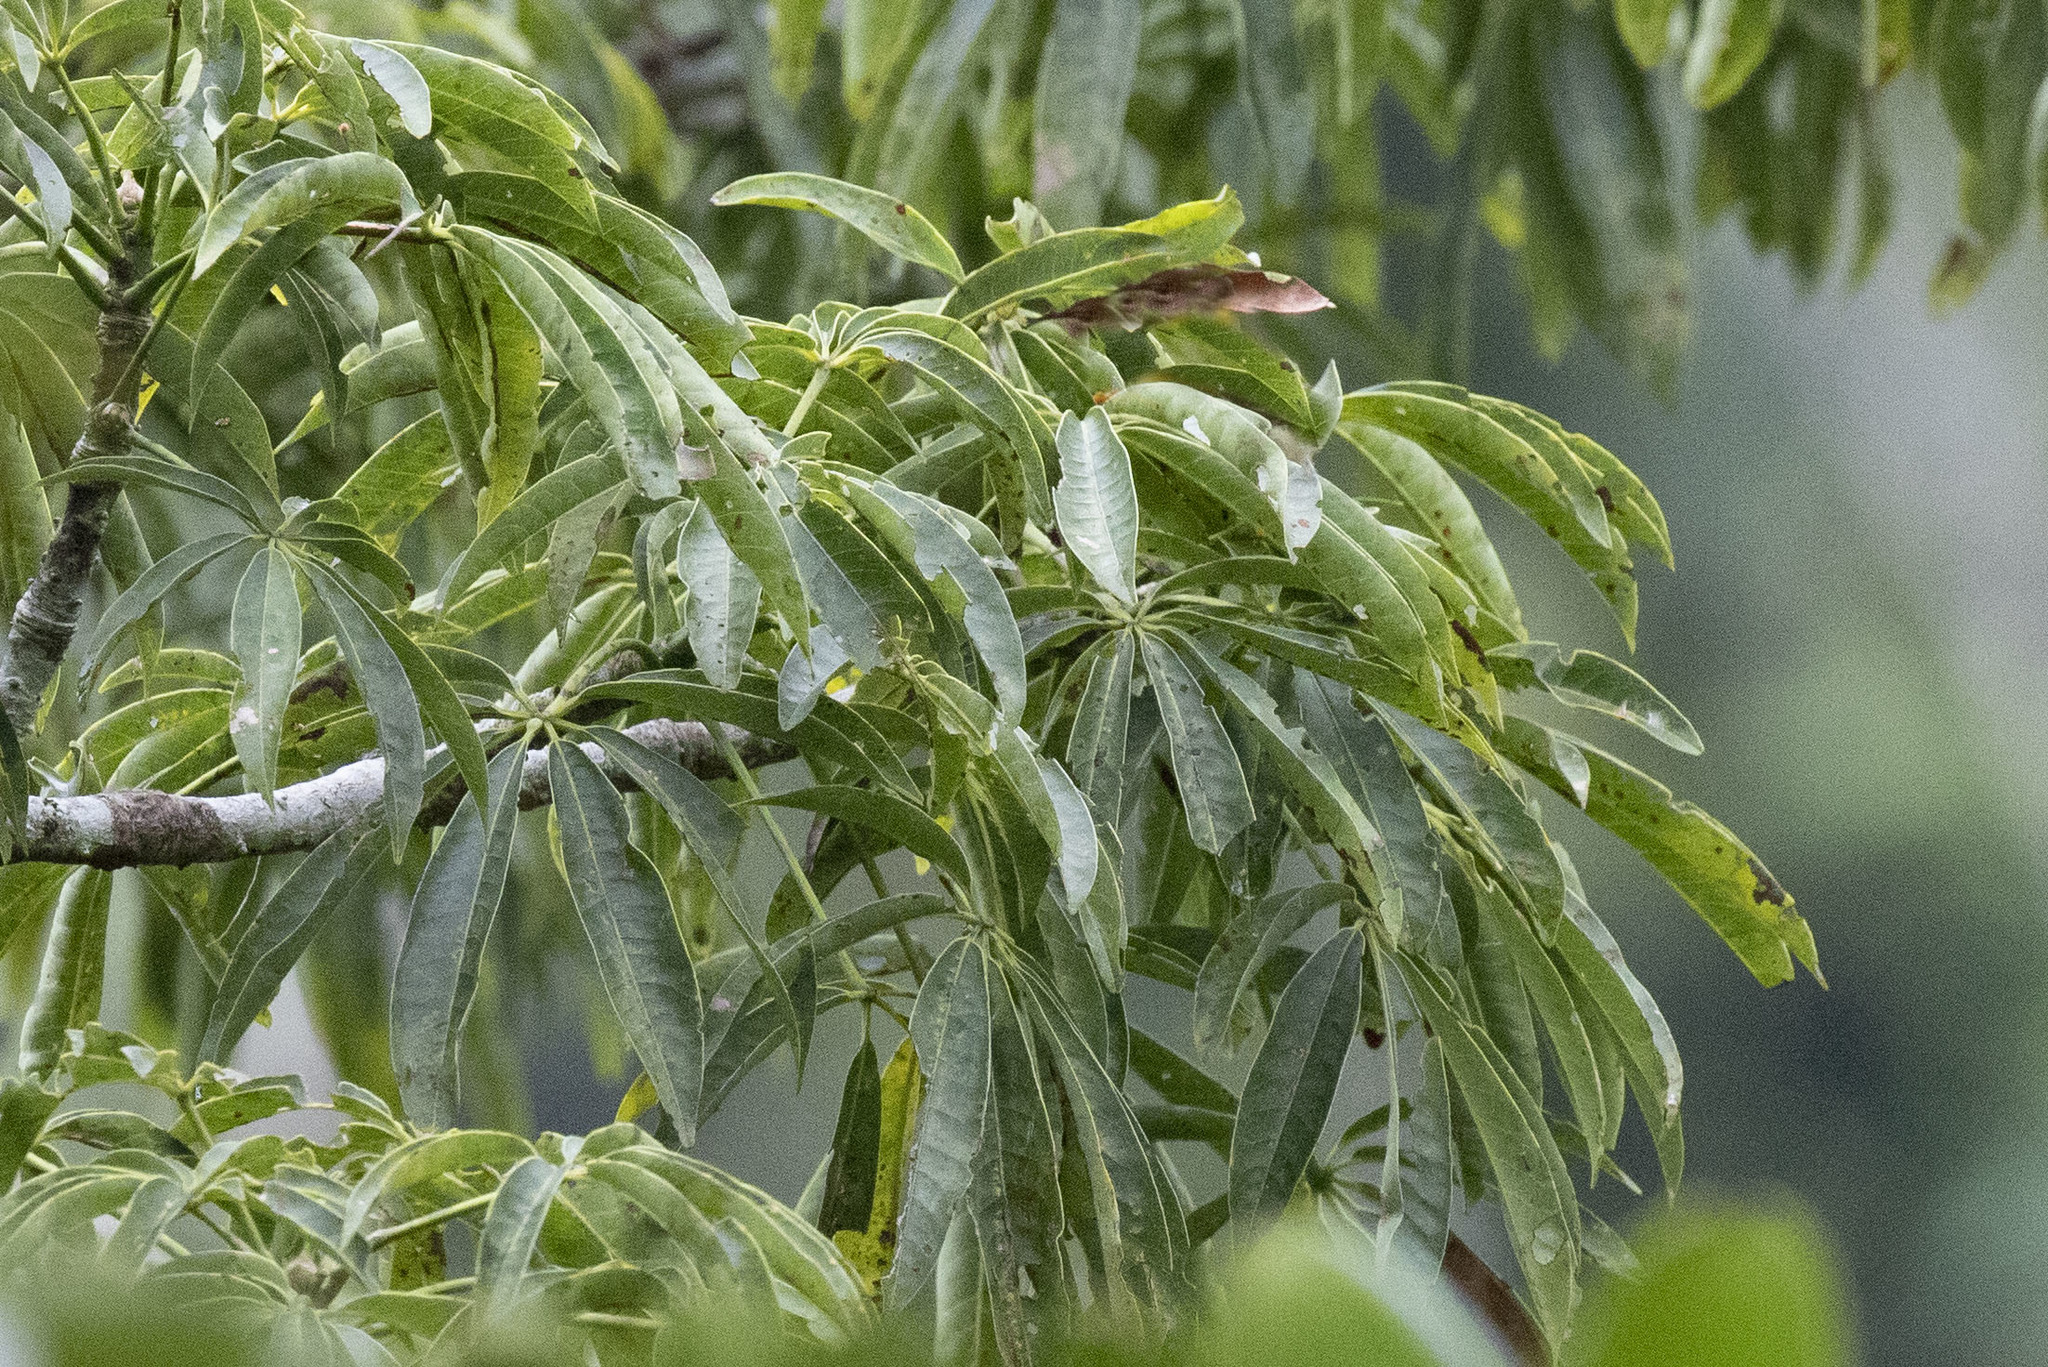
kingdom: Plantae
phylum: Tracheophyta
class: Magnoliopsida
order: Malvales
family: Malvaceae
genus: Ceiba
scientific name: Ceiba pentandra
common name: Kapok
